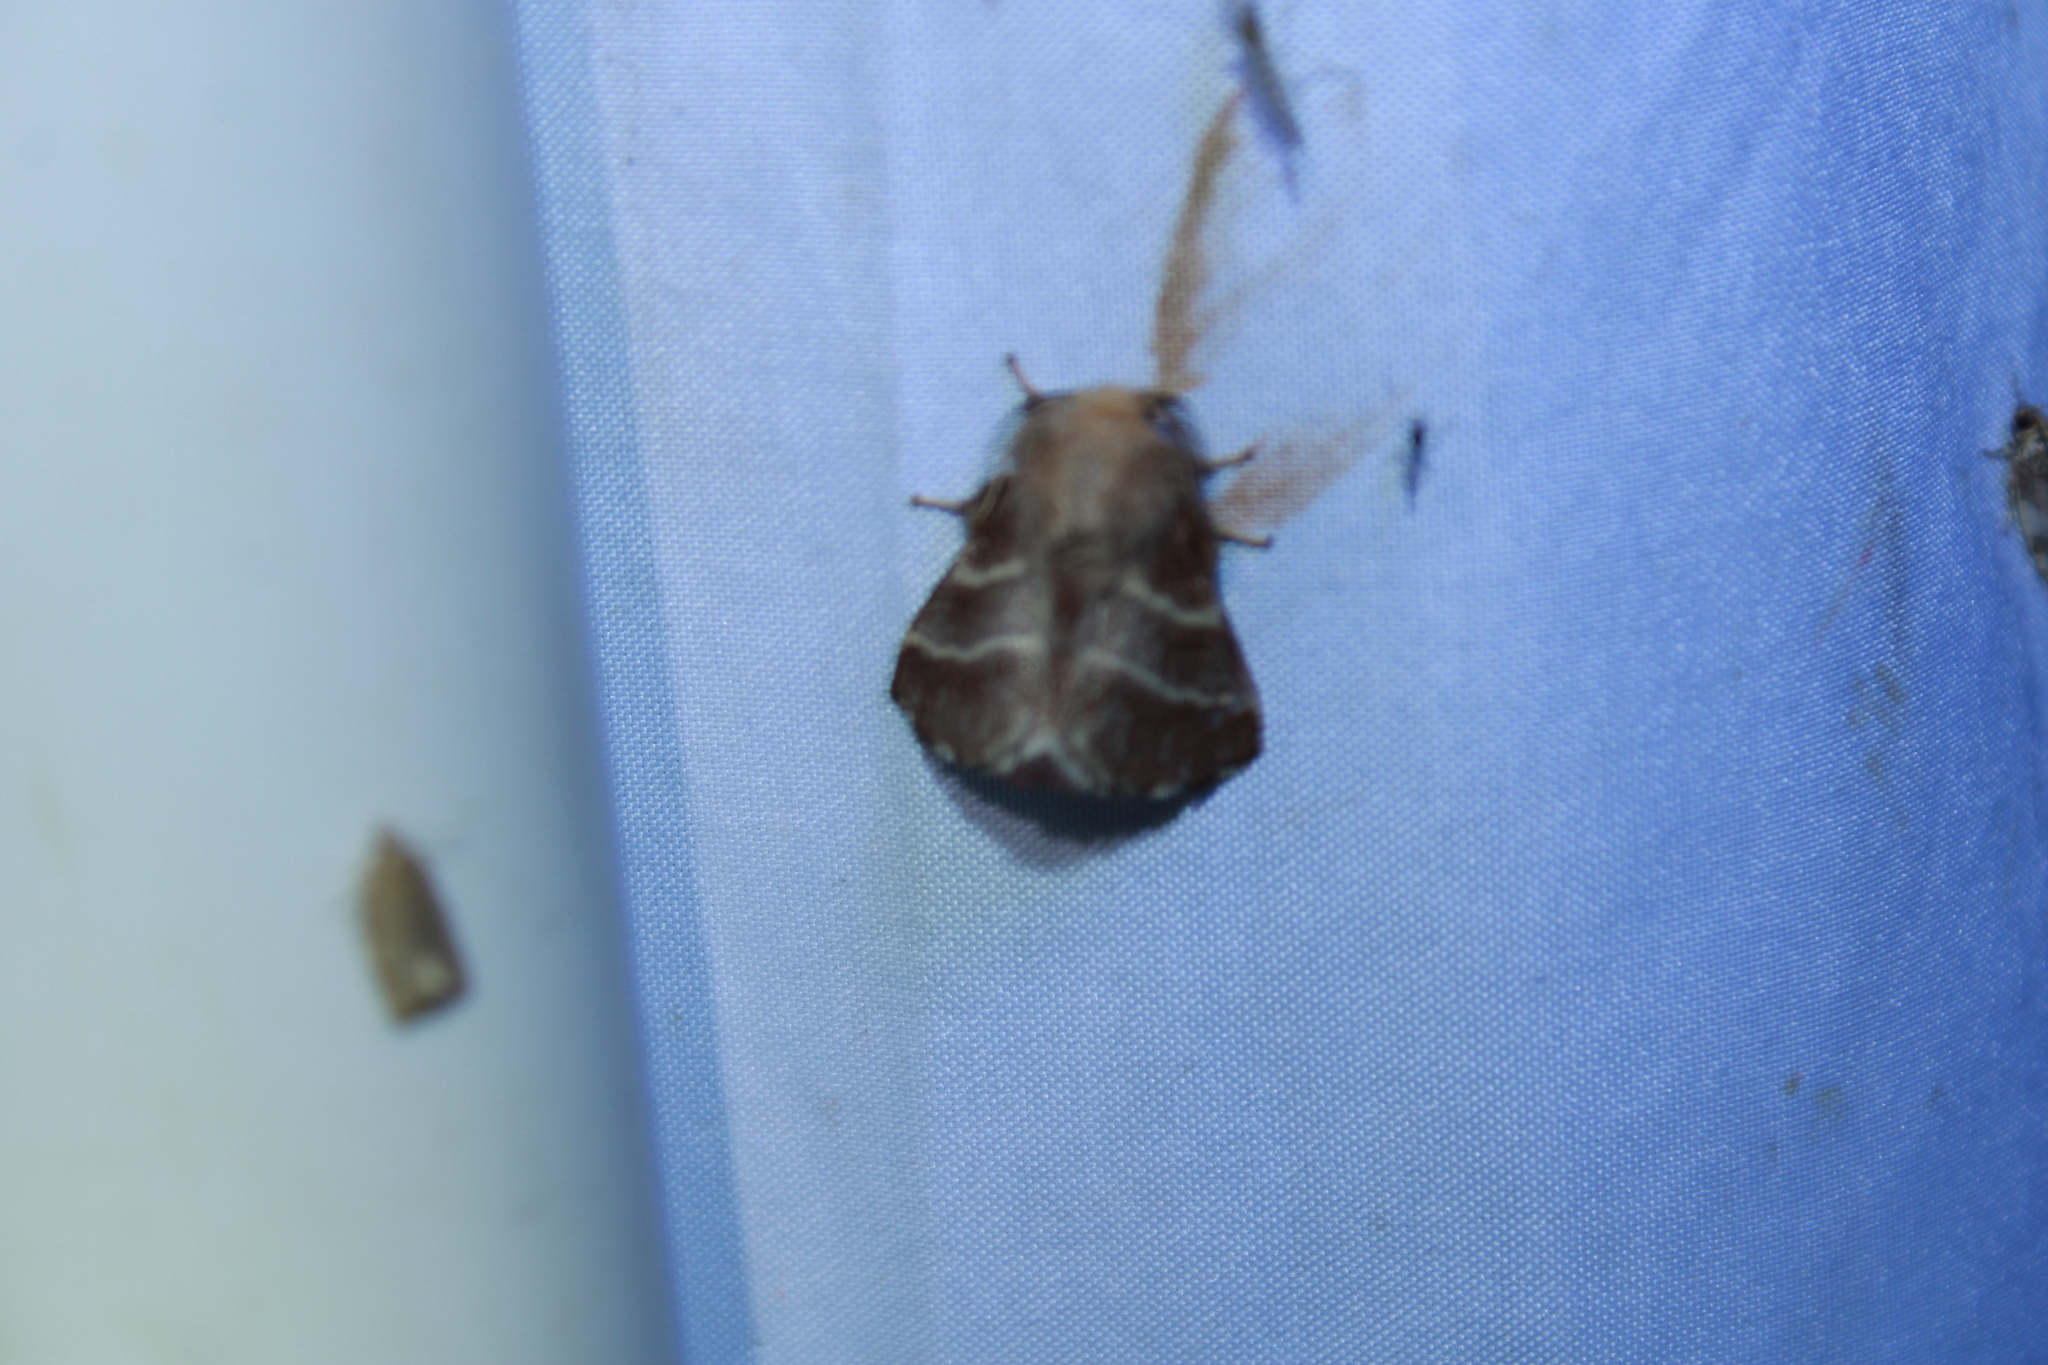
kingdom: Animalia
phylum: Arthropoda
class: Insecta
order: Lepidoptera
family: Lasiocampidae
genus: Malacosoma
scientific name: Malacosoma americana
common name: Eastern tent caterpillar moth
